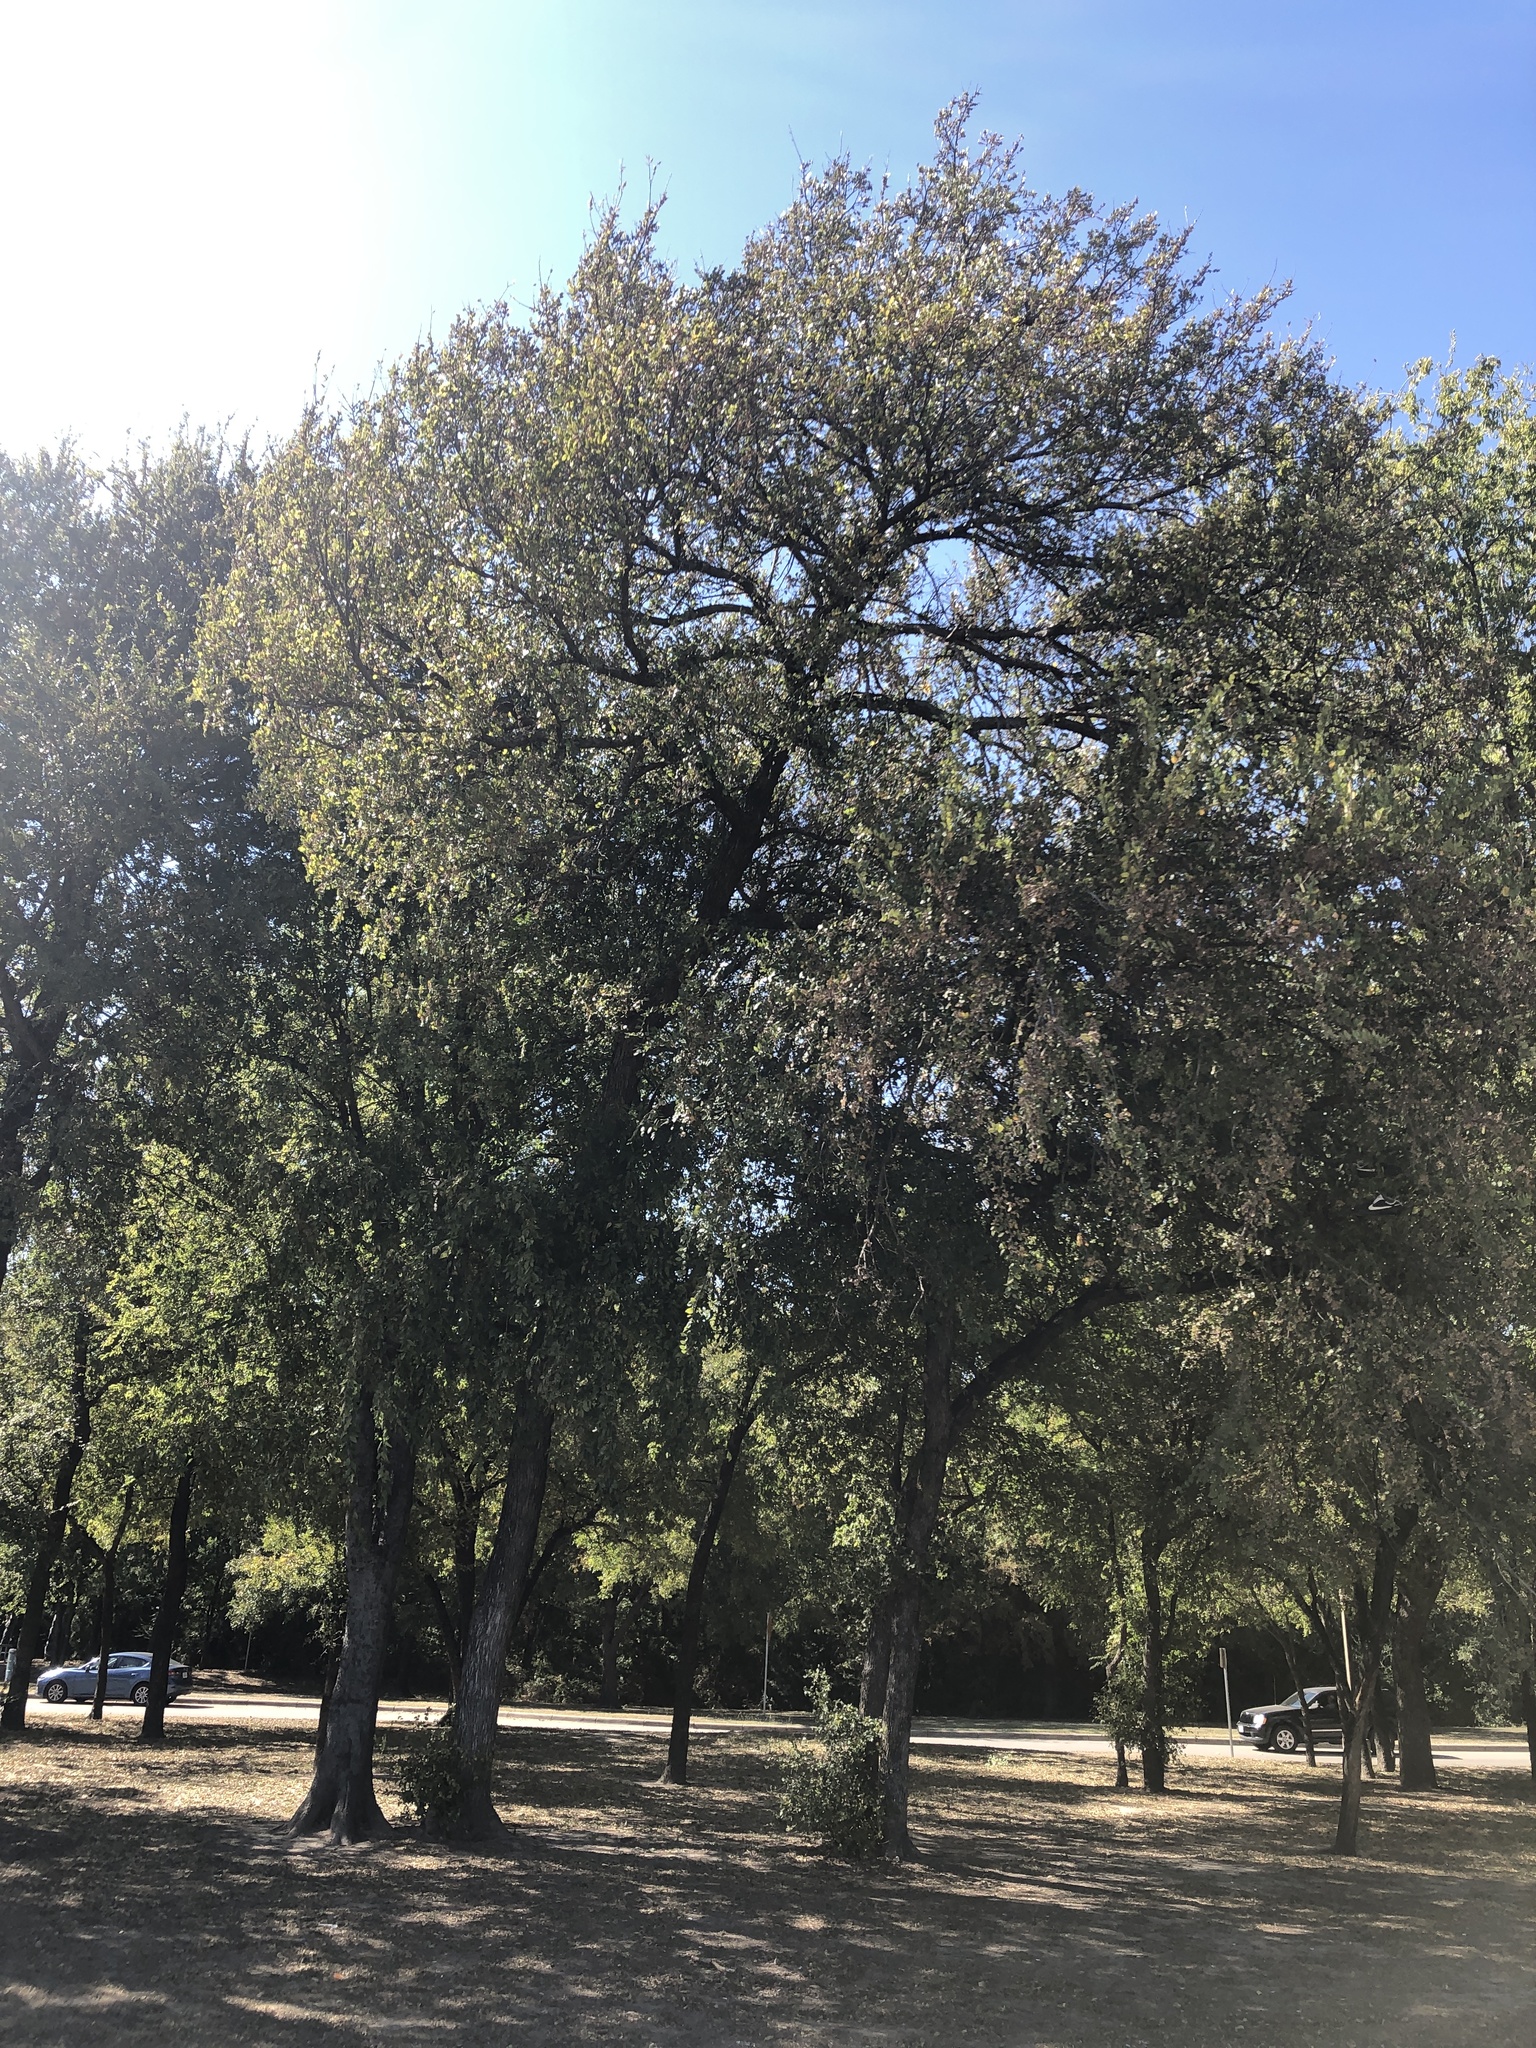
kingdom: Plantae
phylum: Tracheophyta
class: Magnoliopsida
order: Rosales
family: Ulmaceae
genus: Ulmus
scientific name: Ulmus crassifolia
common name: Basket elm
